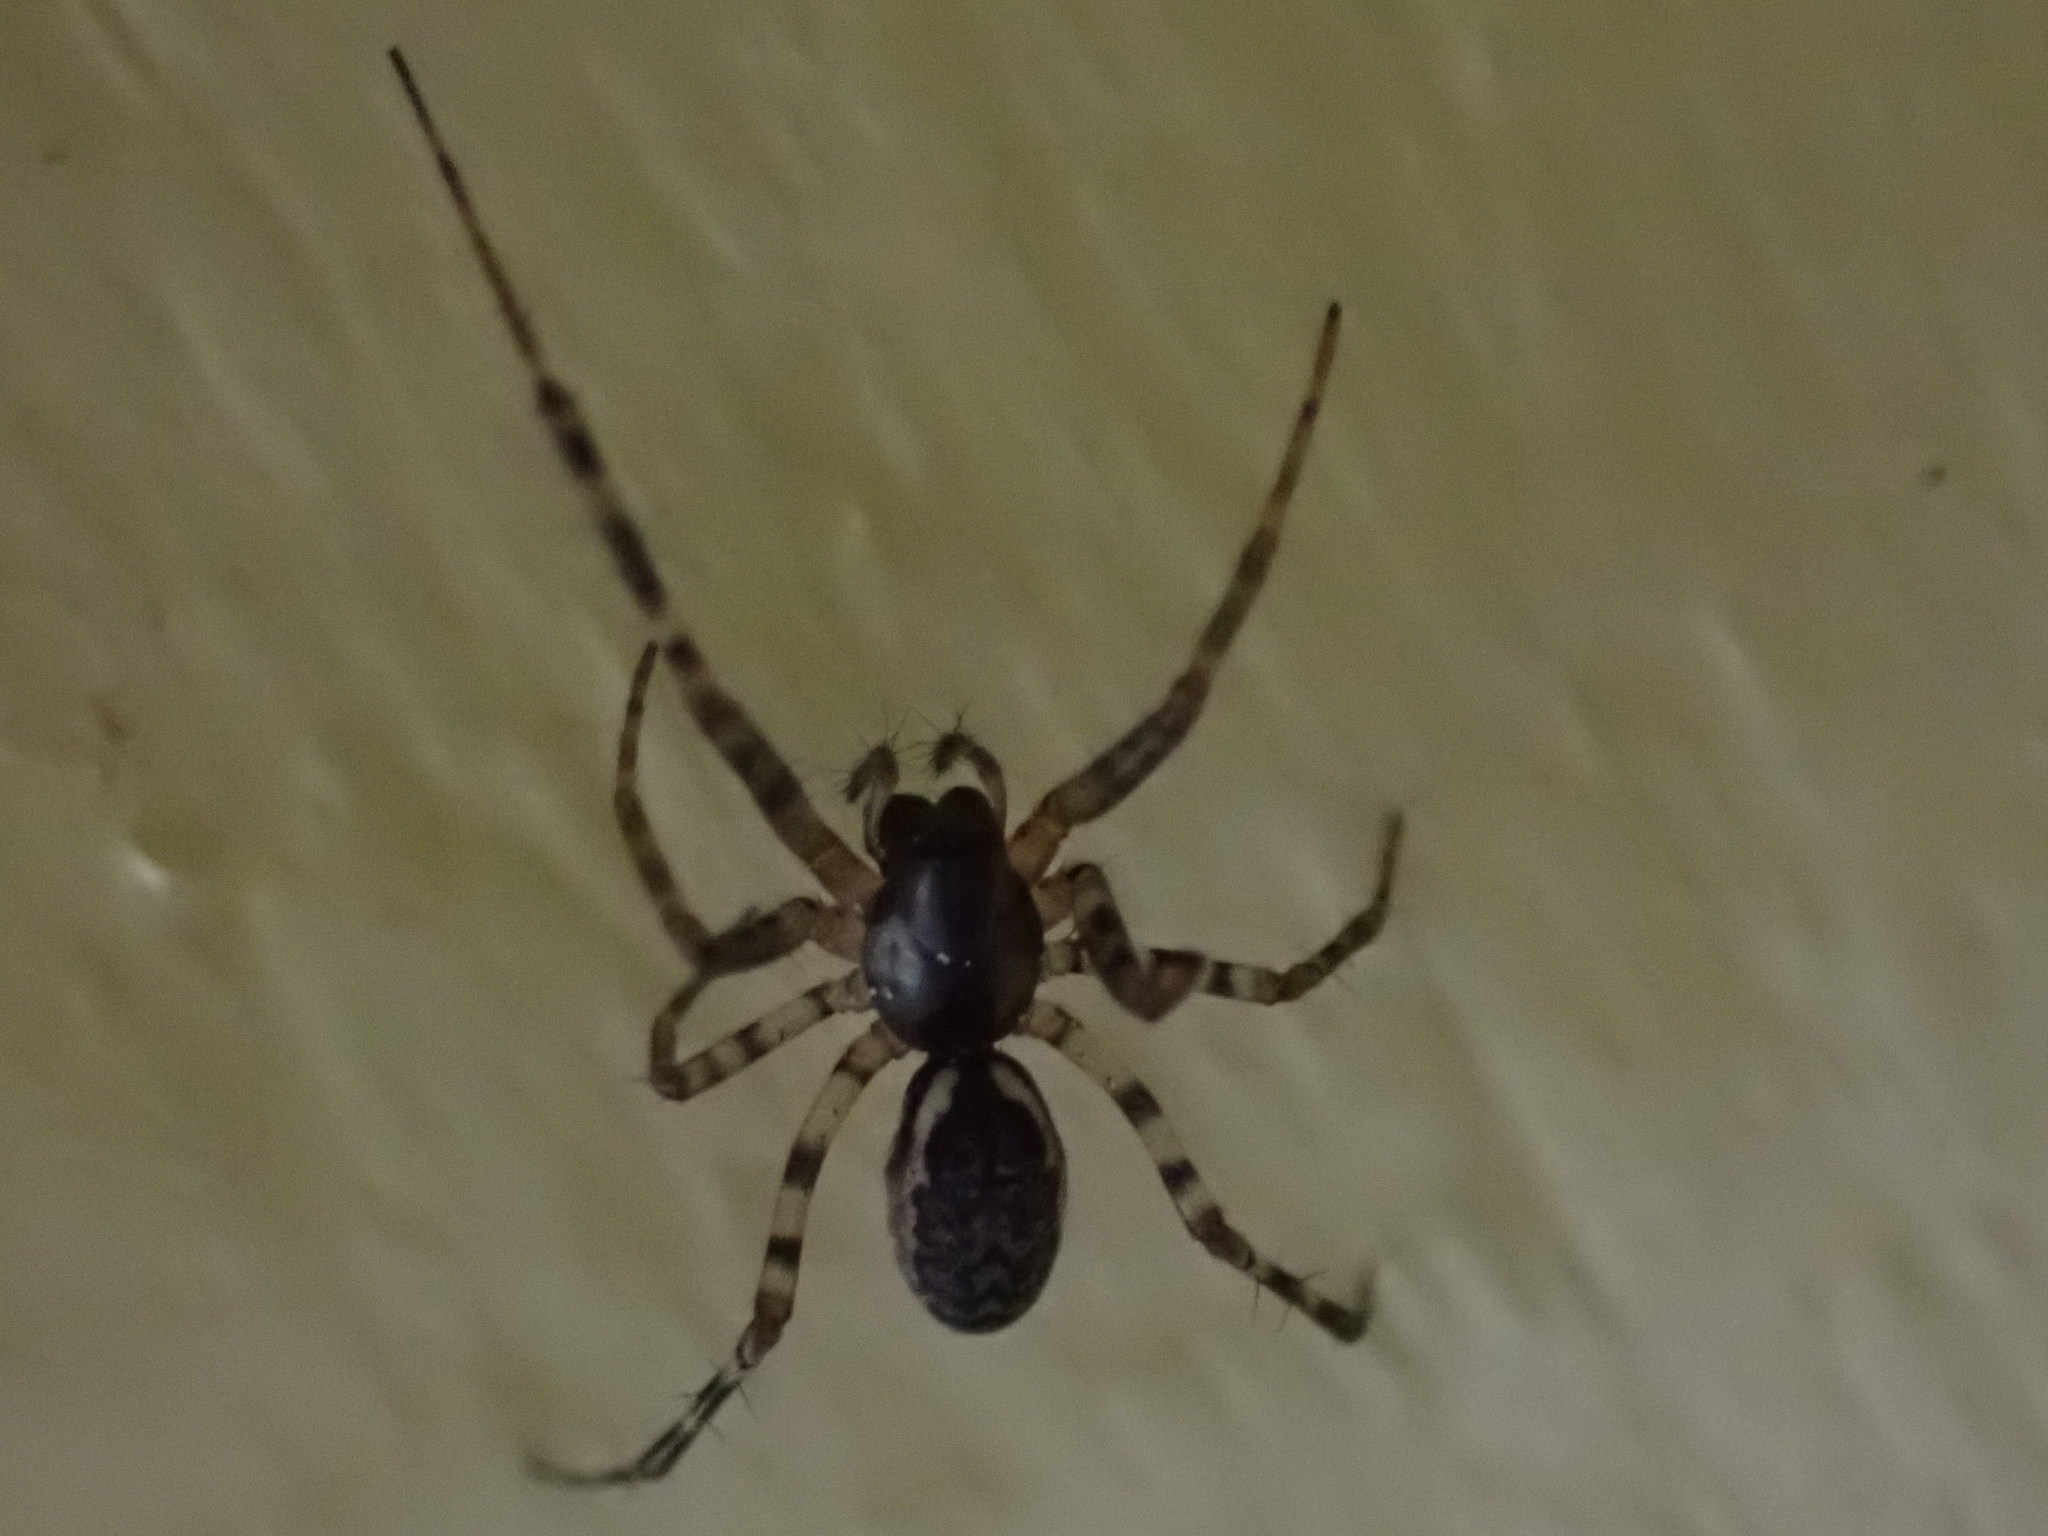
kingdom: Animalia
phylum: Arthropoda
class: Arachnida
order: Araneae
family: Linyphiidae
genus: Neriene
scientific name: Neriene montana
